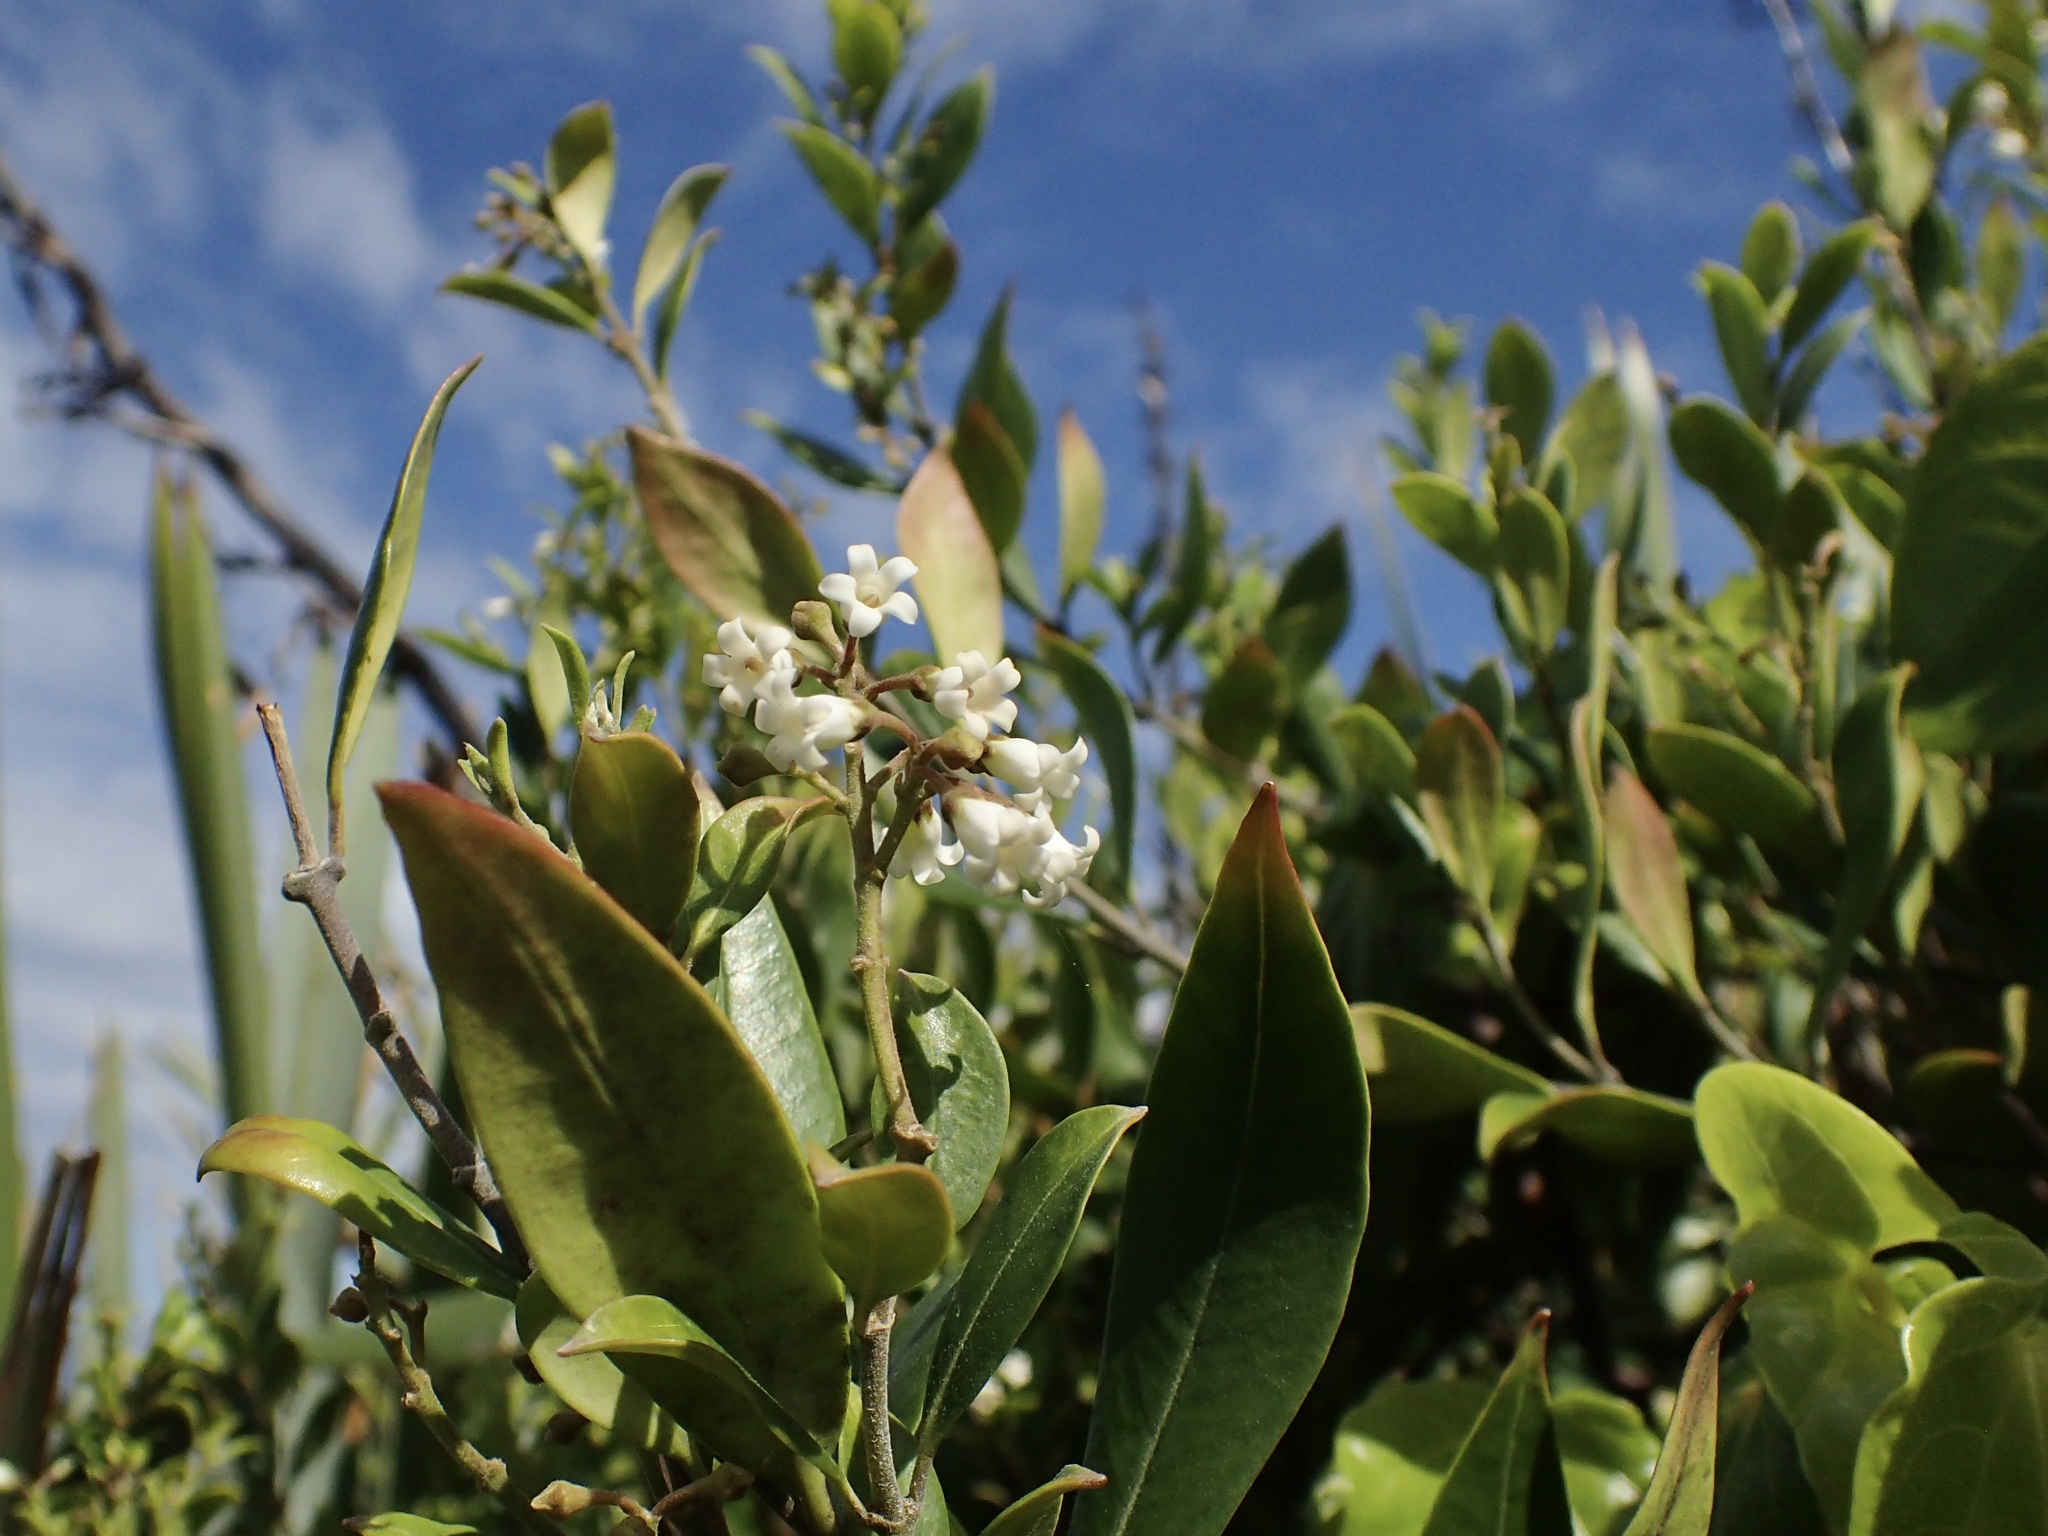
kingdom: Plantae
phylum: Tracheophyta
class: Magnoliopsida
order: Gentianales
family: Apocynaceae
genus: Parsonsia
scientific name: Parsonsia heterophylla
